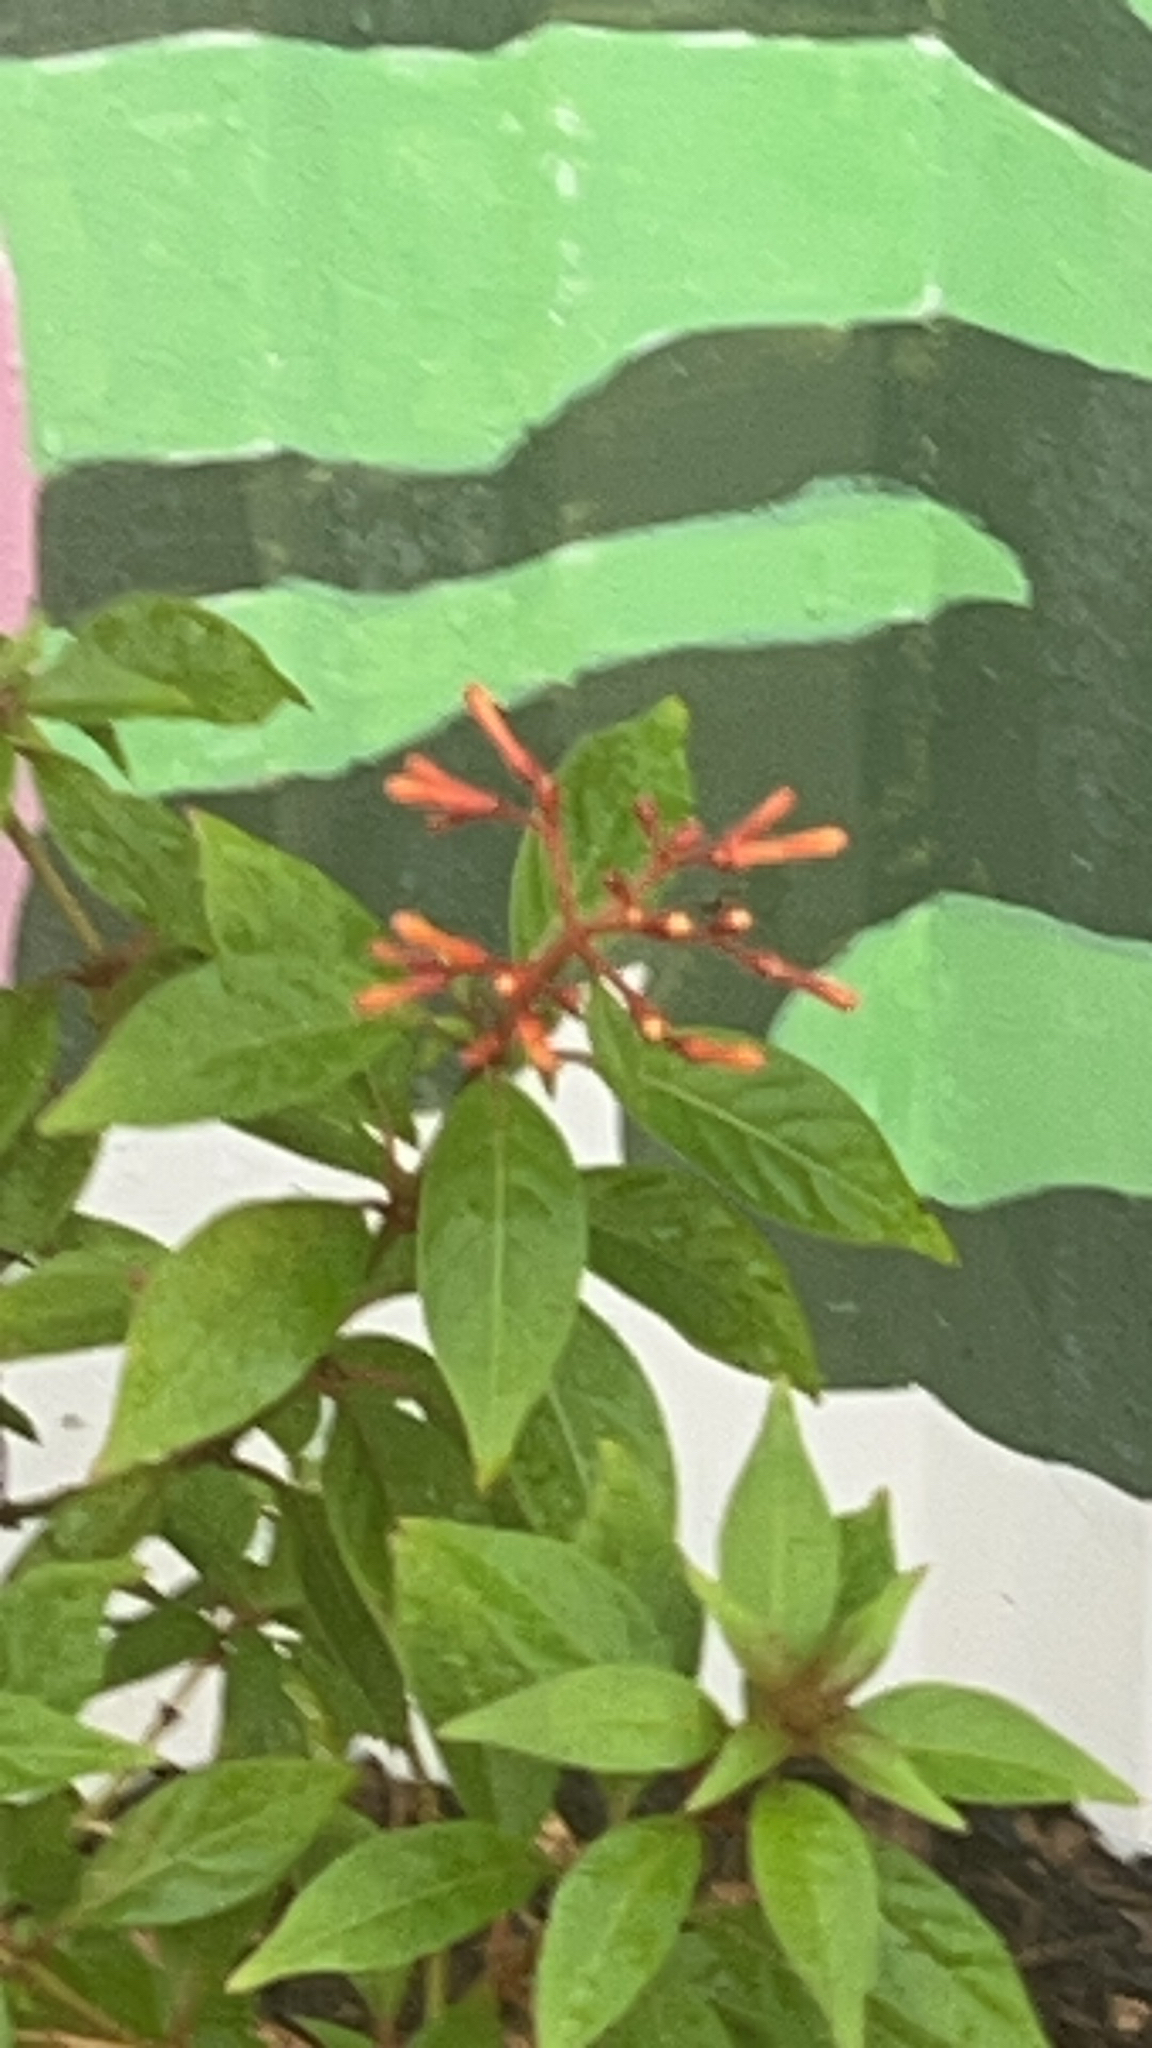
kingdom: Plantae
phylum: Tracheophyta
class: Magnoliopsida
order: Gentianales
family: Rubiaceae
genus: Hamelia
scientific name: Hamelia patens
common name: Redhead
